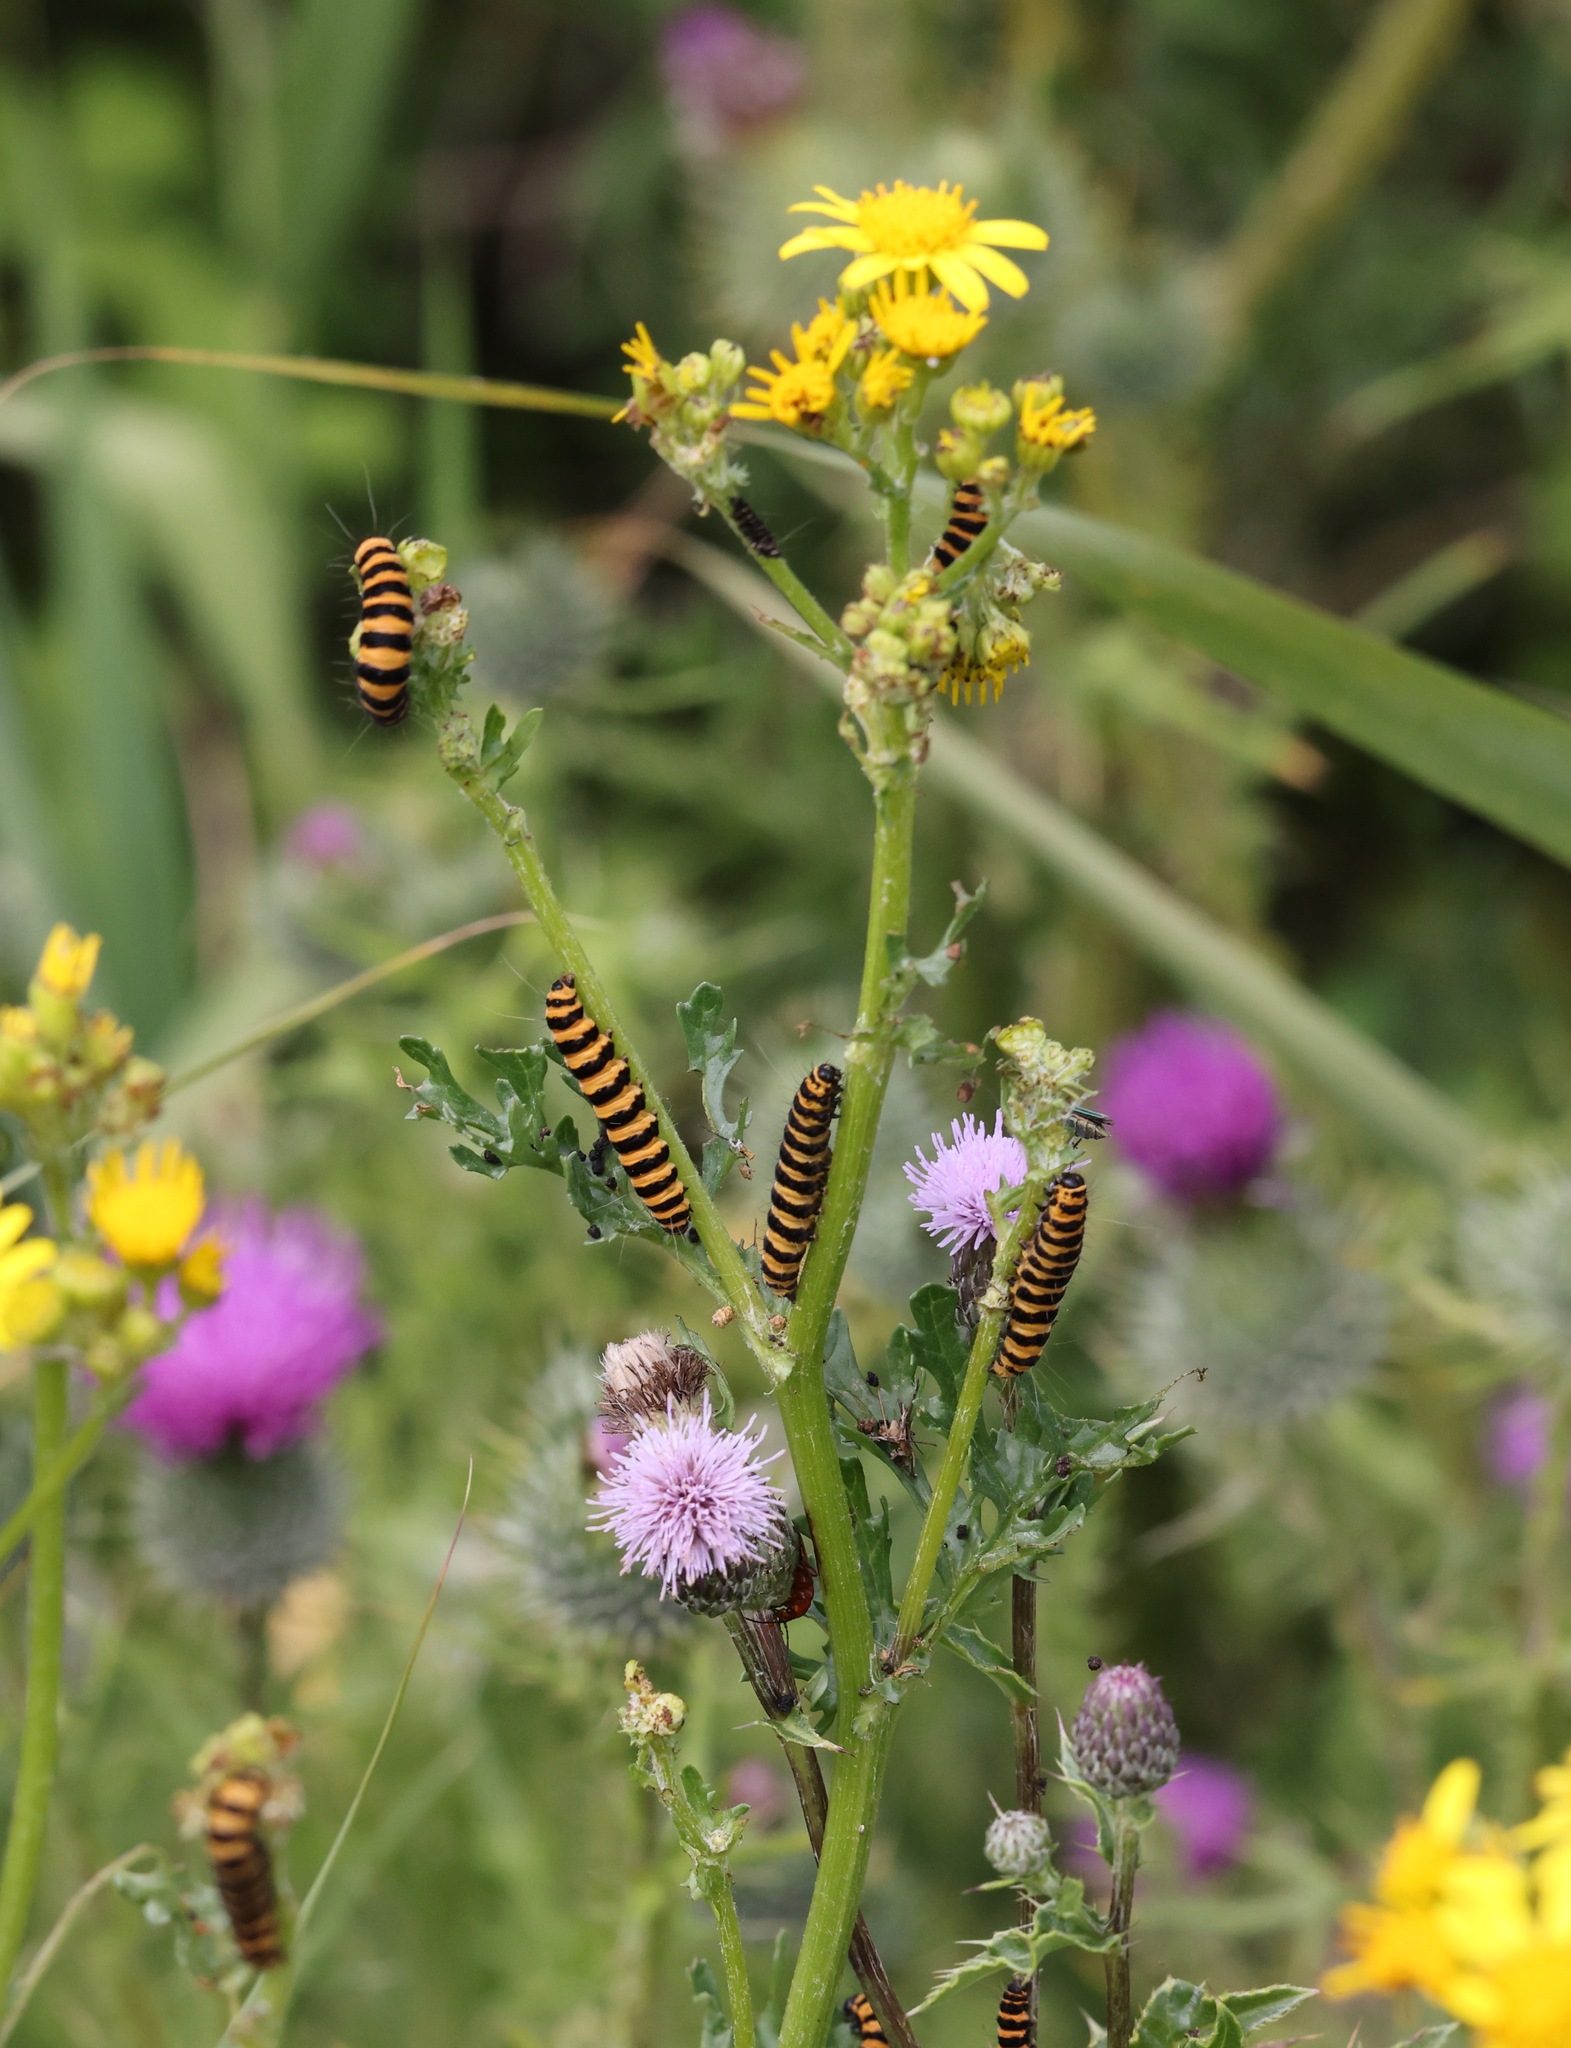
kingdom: Animalia
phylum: Arthropoda
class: Insecta
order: Lepidoptera
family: Erebidae
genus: Tyria
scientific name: Tyria jacobaeae
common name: Cinnabar
